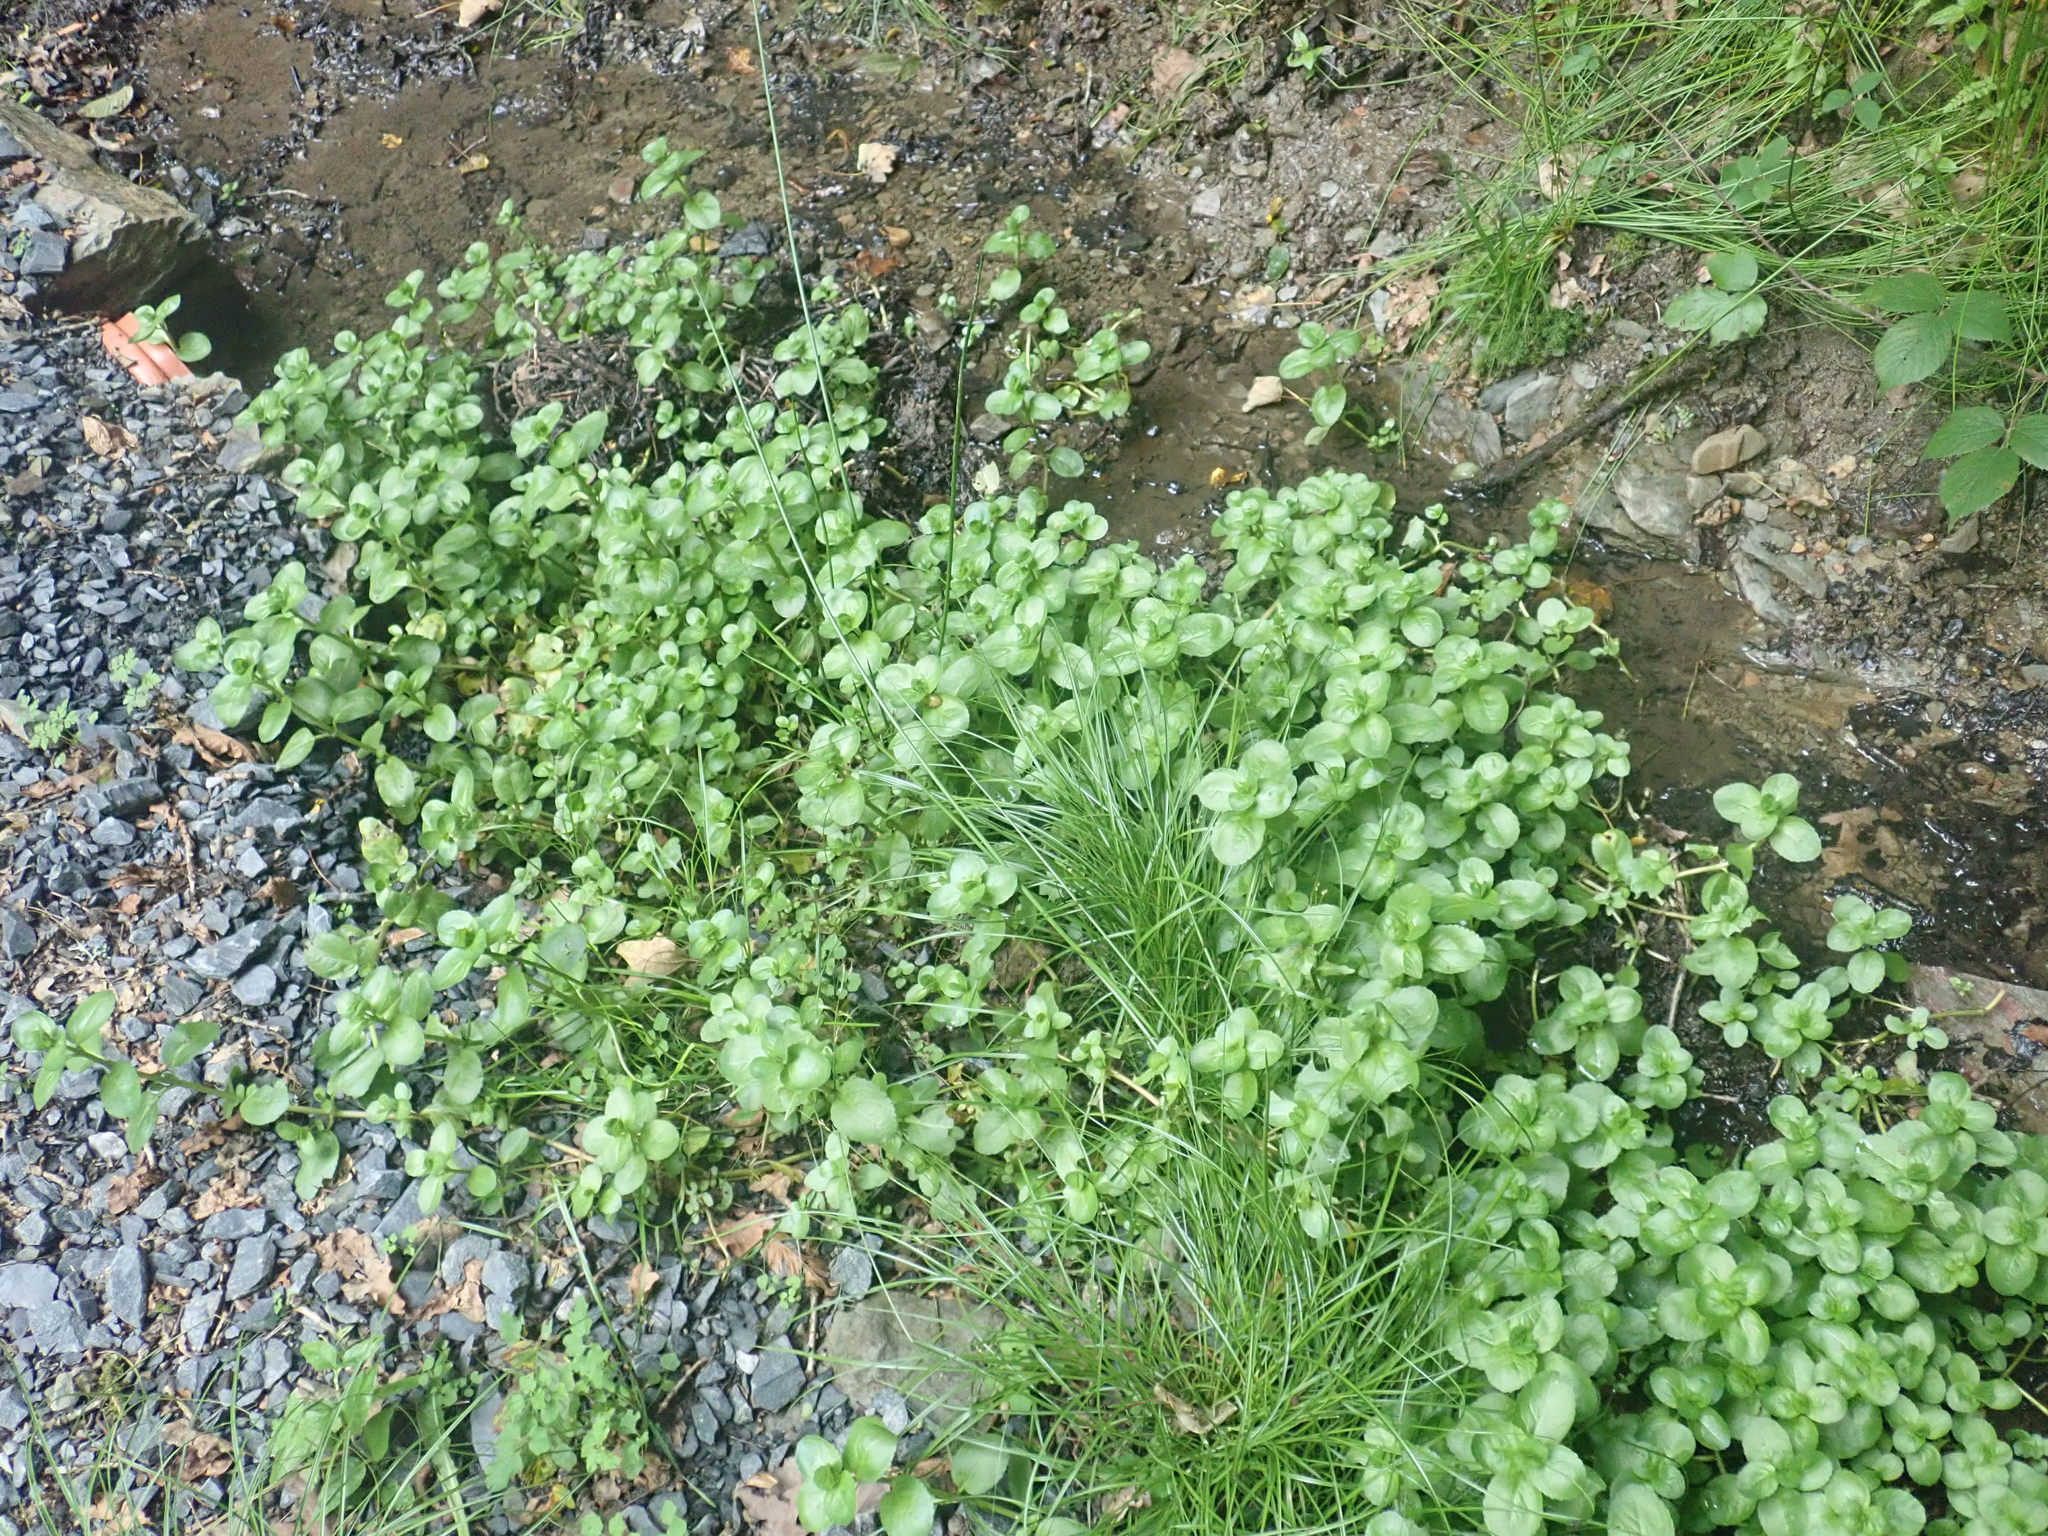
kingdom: Plantae
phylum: Tracheophyta
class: Magnoliopsida
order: Lamiales
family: Plantaginaceae
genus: Veronica
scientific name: Veronica beccabunga
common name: Brooklime
